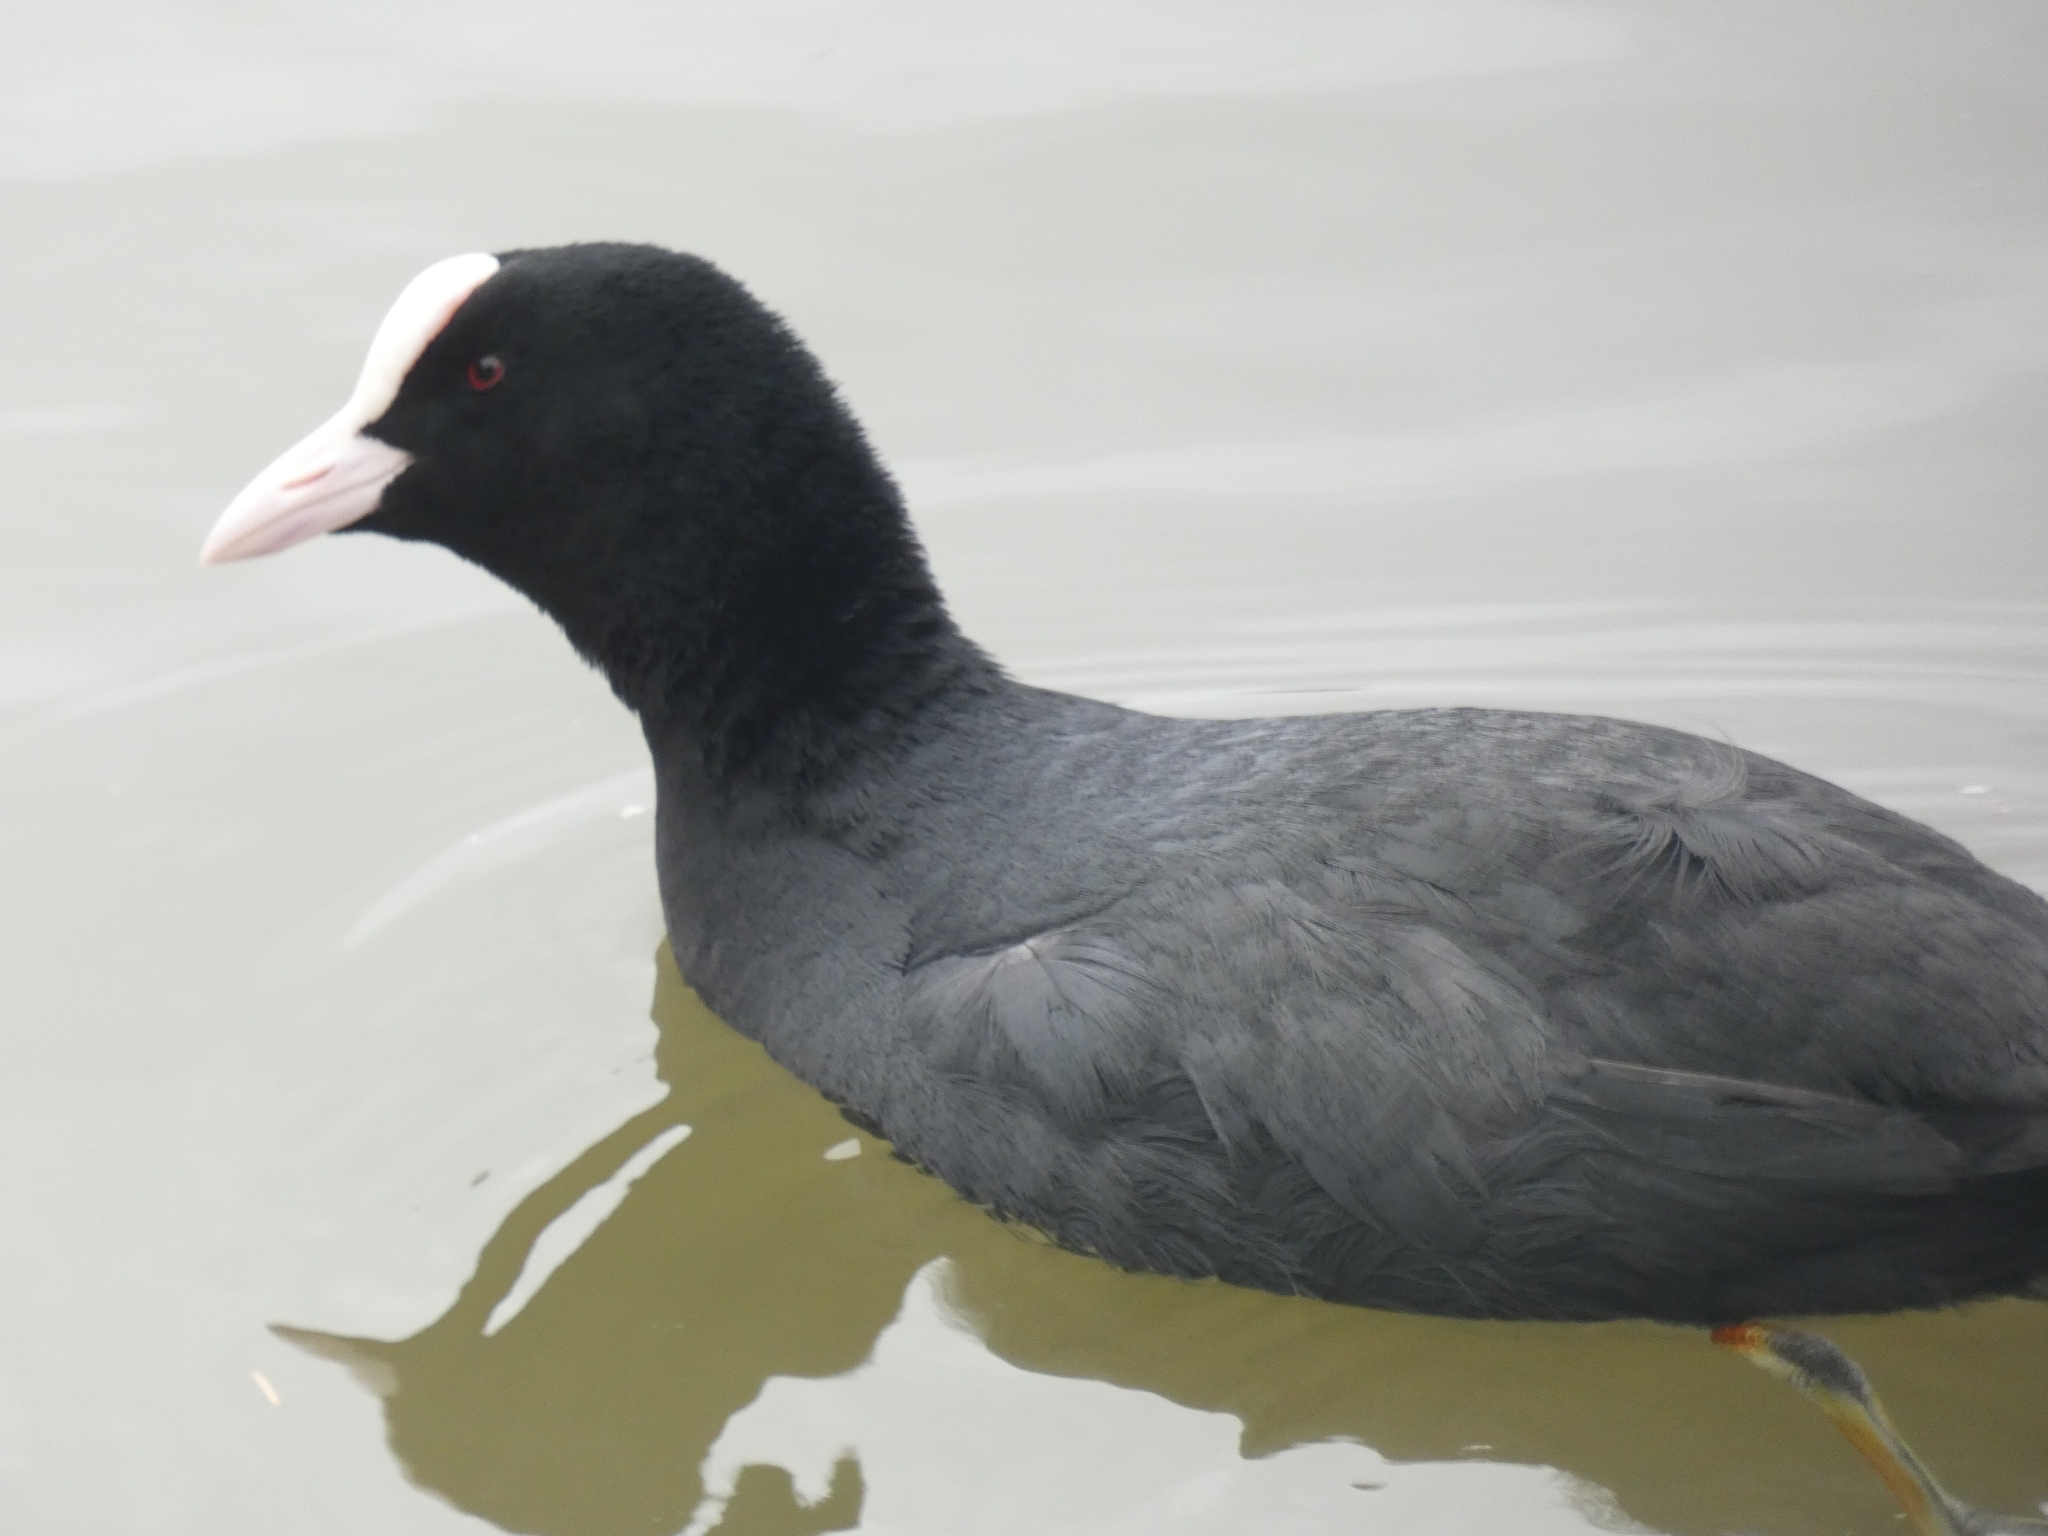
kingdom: Animalia
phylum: Chordata
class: Aves
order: Gruiformes
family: Rallidae
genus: Fulica
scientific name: Fulica atra
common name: Eurasian coot
